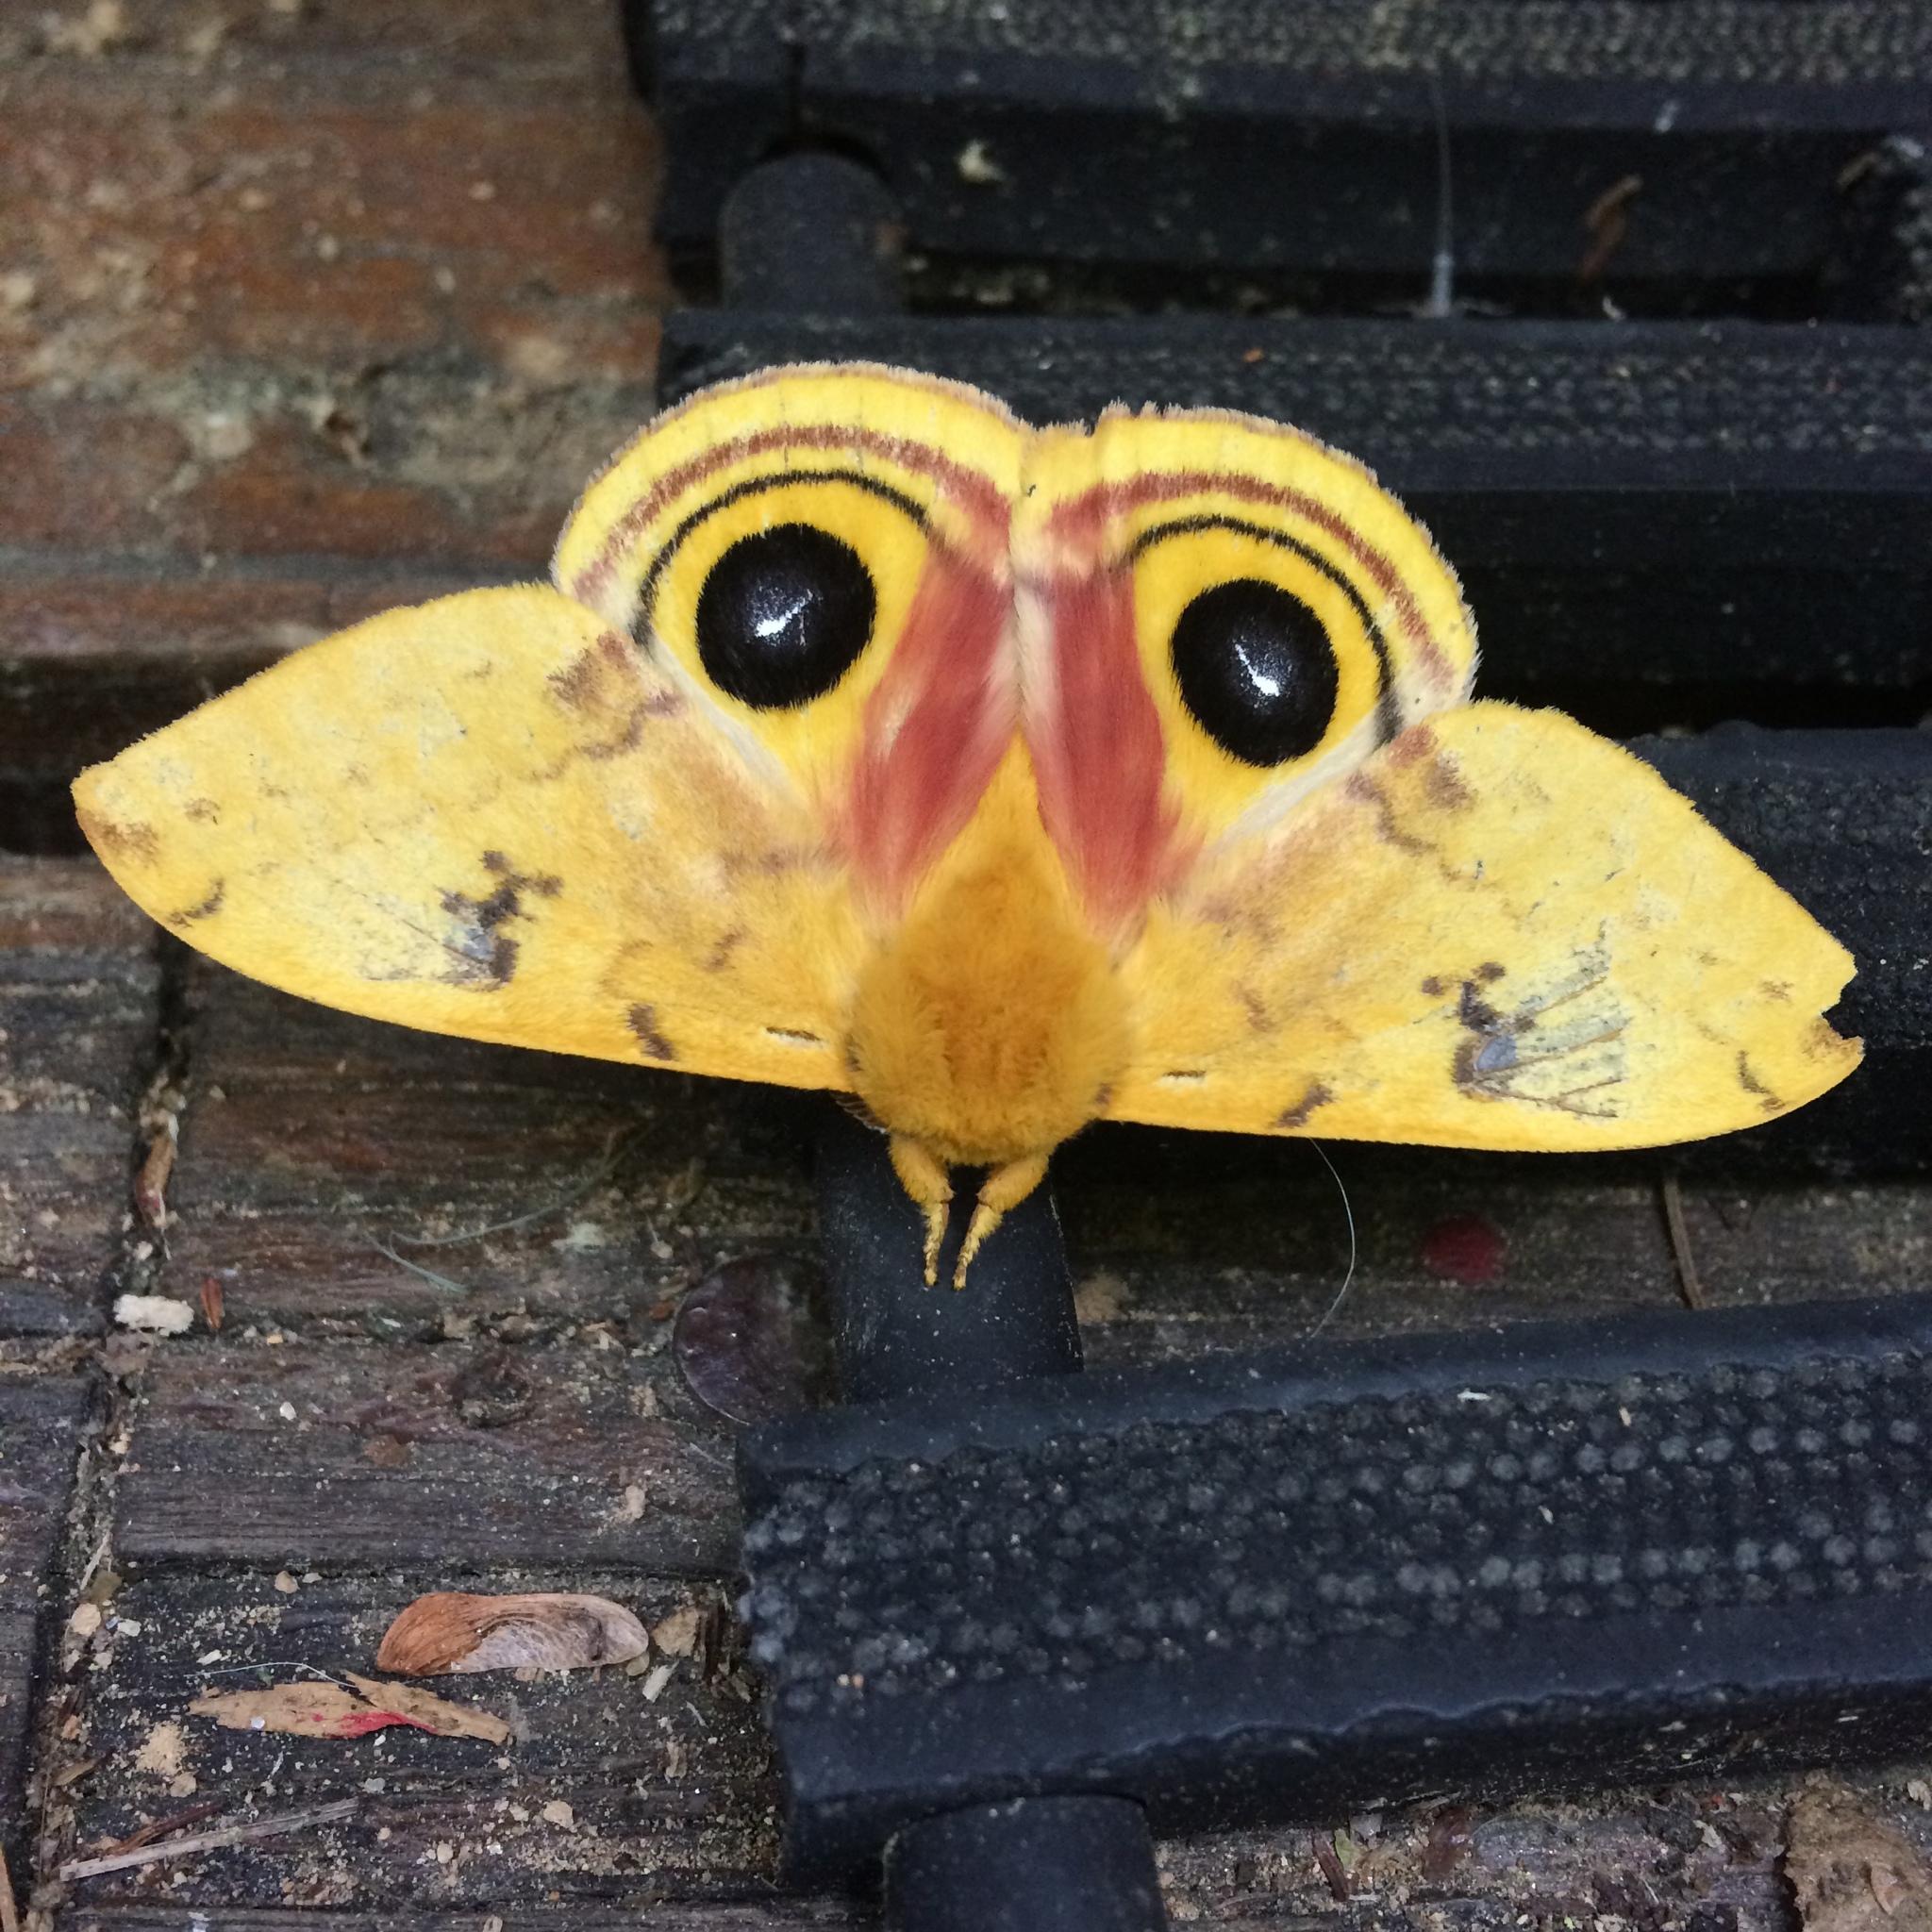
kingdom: Animalia
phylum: Arthropoda
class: Insecta
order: Lepidoptera
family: Saturniidae
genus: Automeris
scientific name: Automeris io
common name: Io moth
